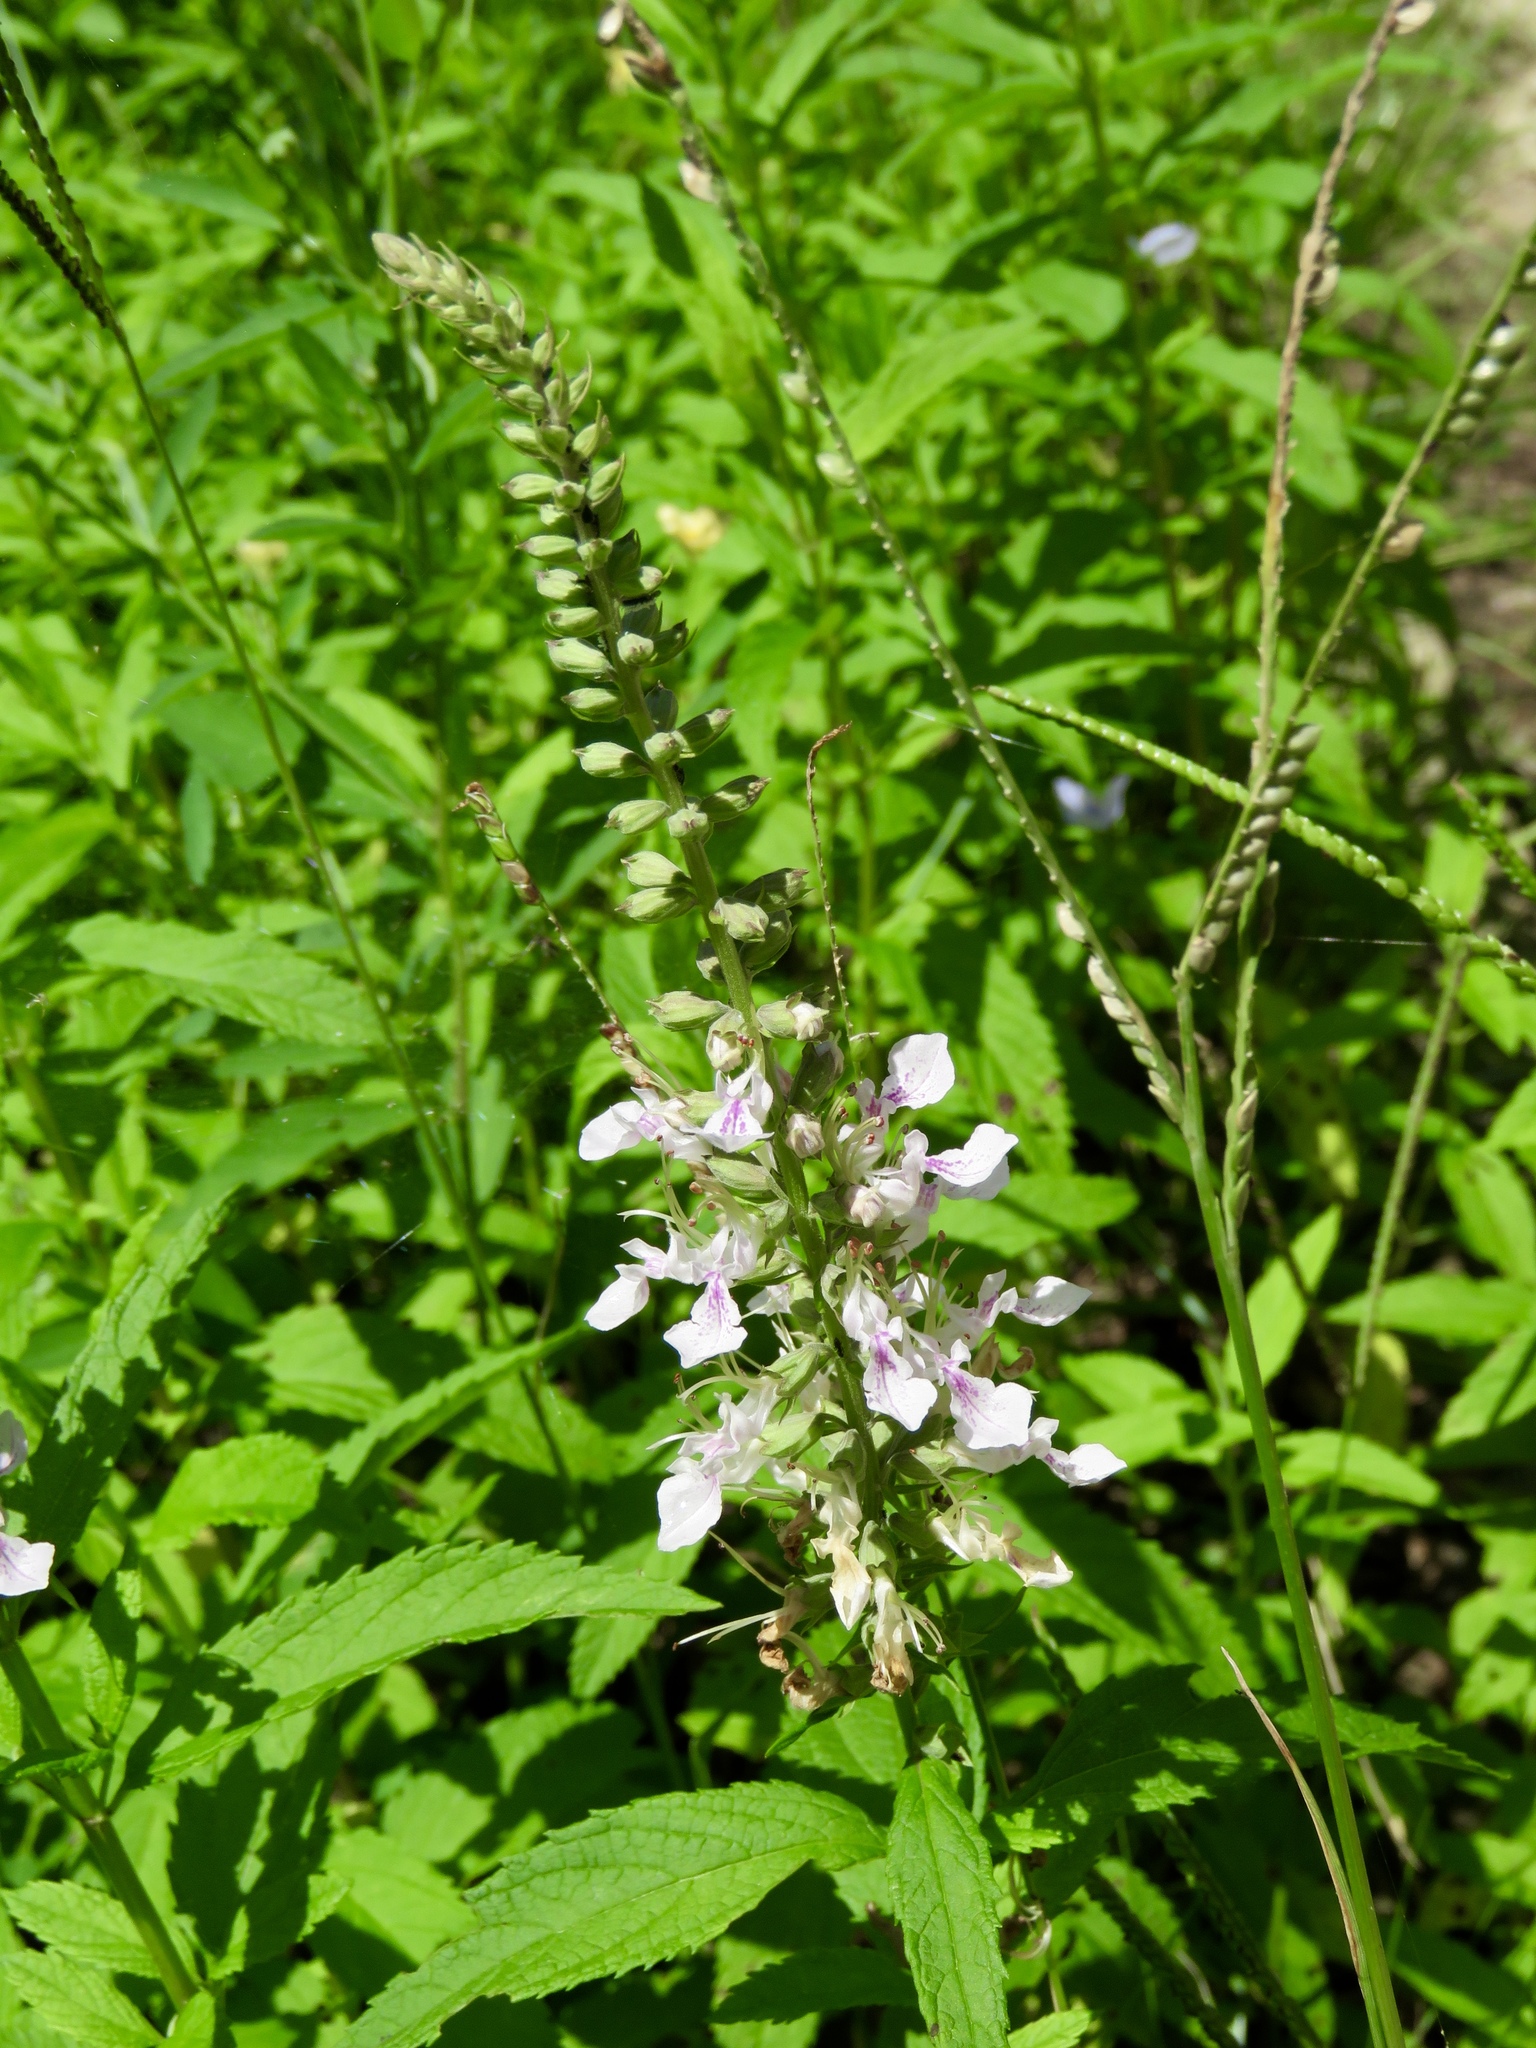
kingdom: Plantae
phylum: Tracheophyta
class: Magnoliopsida
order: Lamiales
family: Lamiaceae
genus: Teucrium
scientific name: Teucrium canadense
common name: American germander
